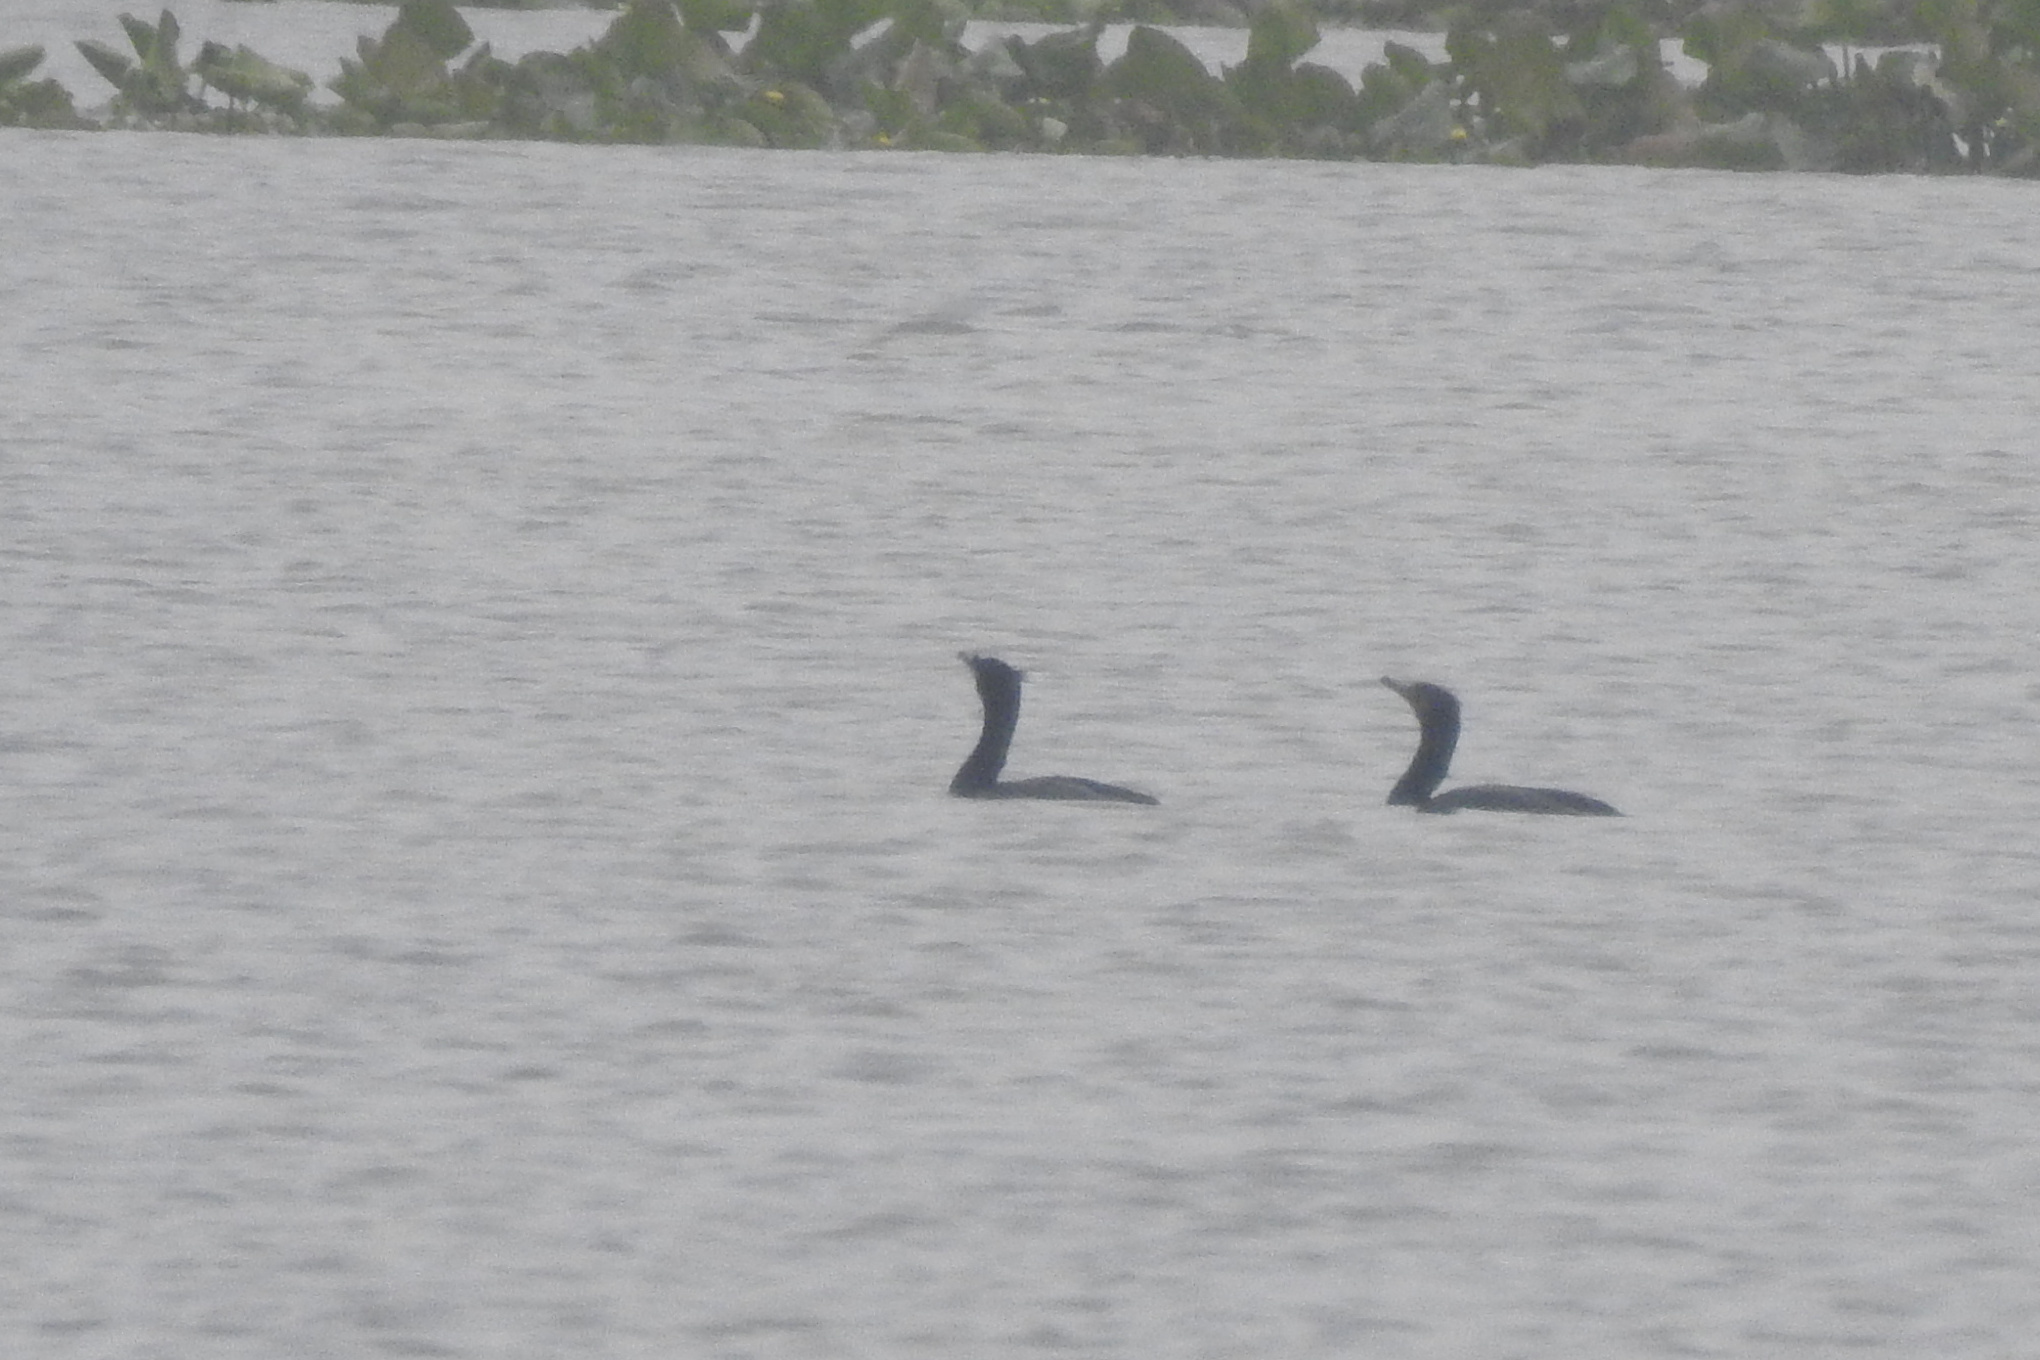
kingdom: Animalia
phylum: Chordata
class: Aves
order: Suliformes
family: Phalacrocoracidae
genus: Phalacrocorax
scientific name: Phalacrocorax auritus
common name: Double-crested cormorant
